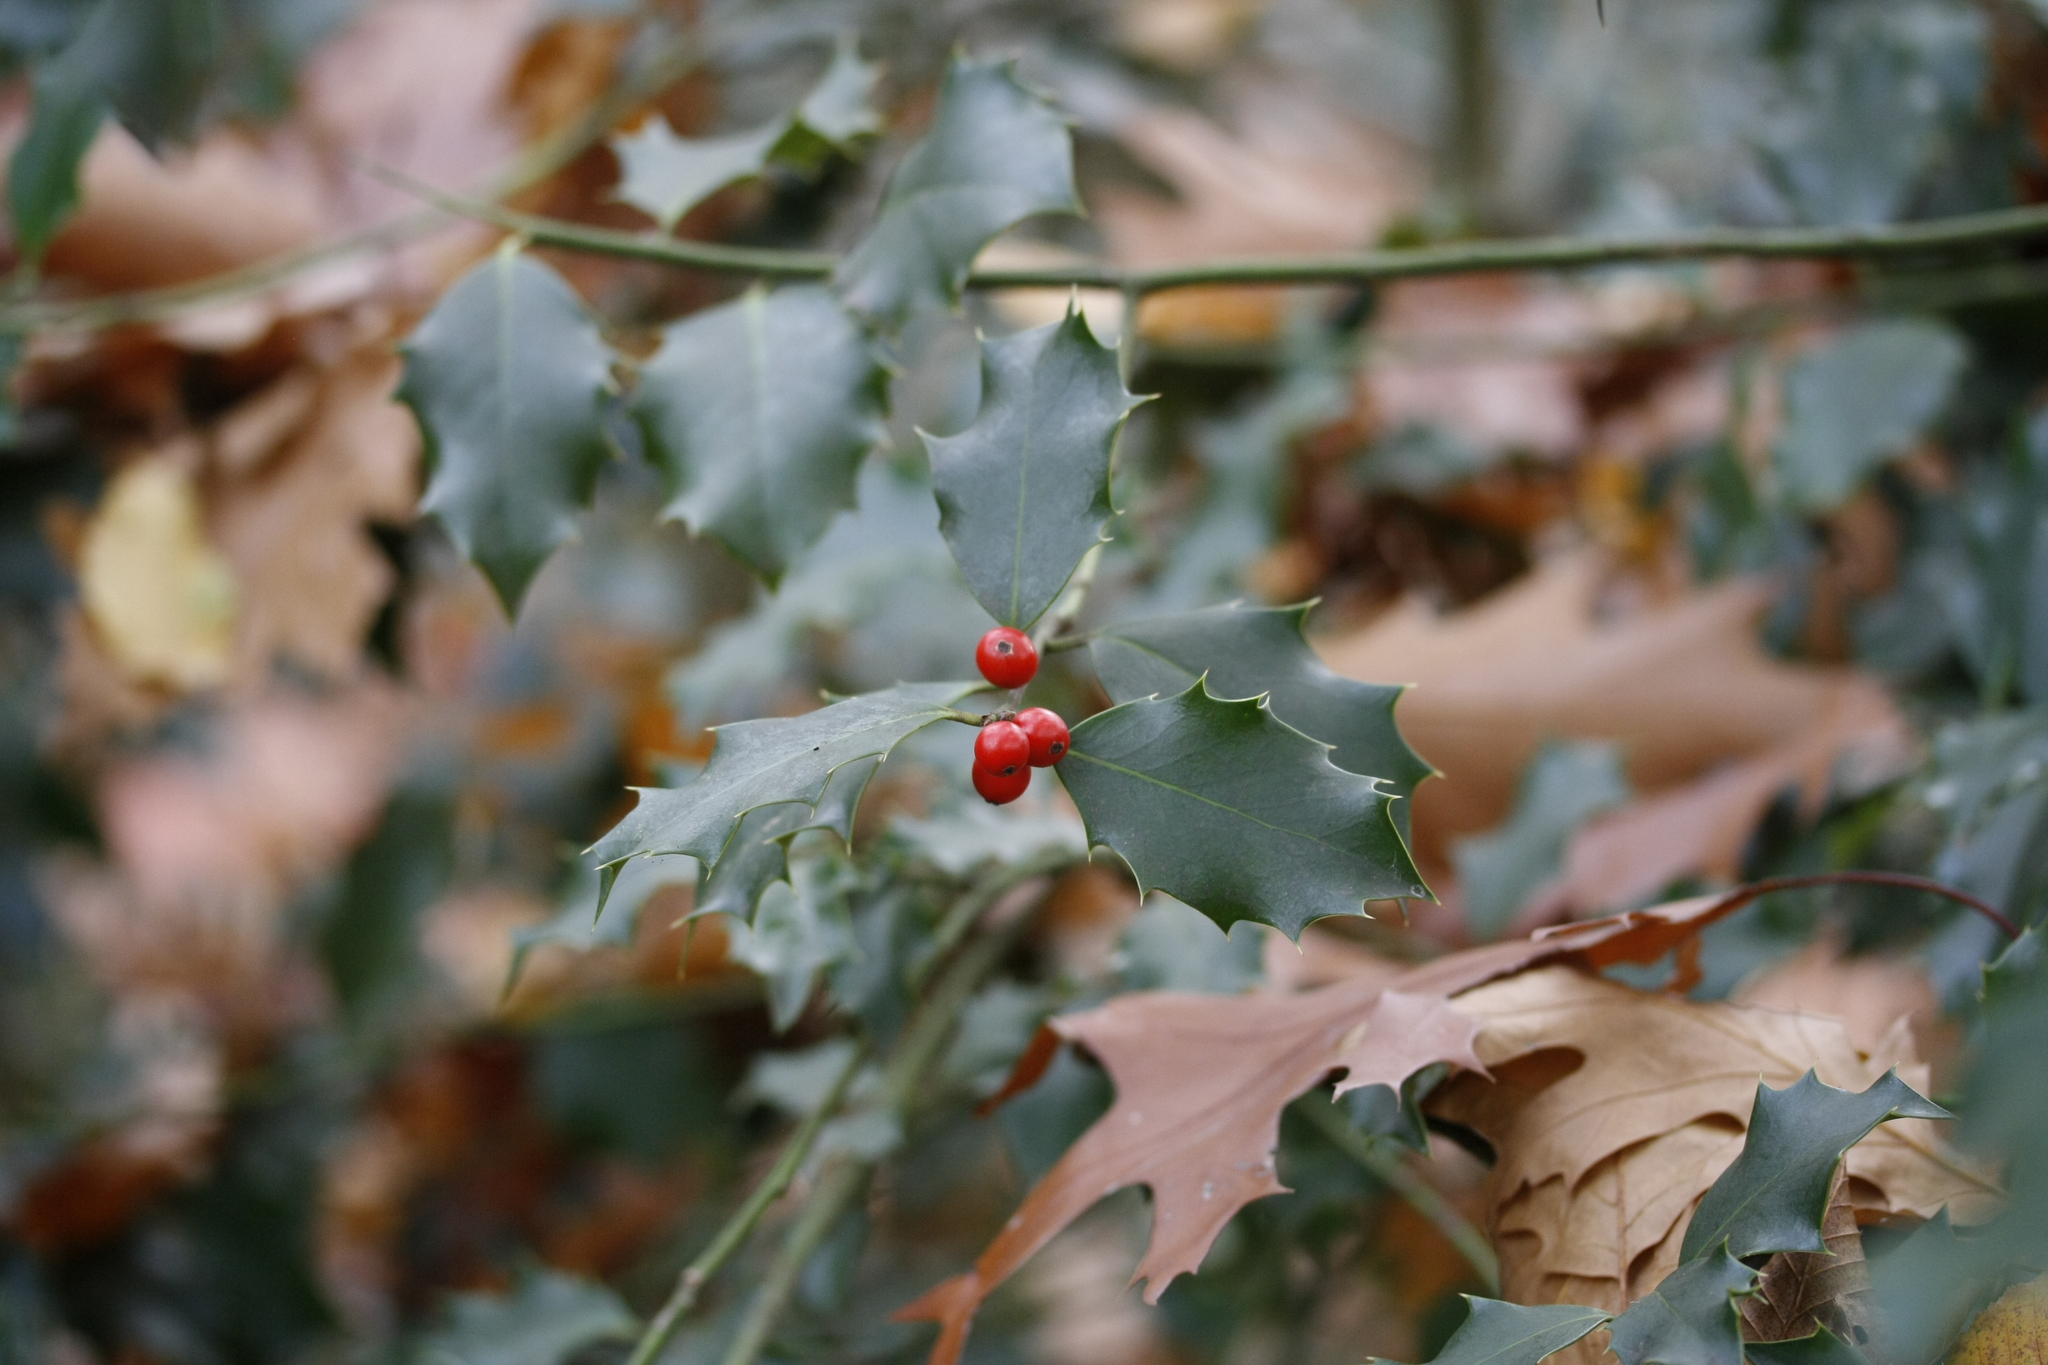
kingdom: Plantae
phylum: Tracheophyta
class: Magnoliopsida
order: Aquifoliales
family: Aquifoliaceae
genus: Ilex
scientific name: Ilex aquifolium
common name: English holly
